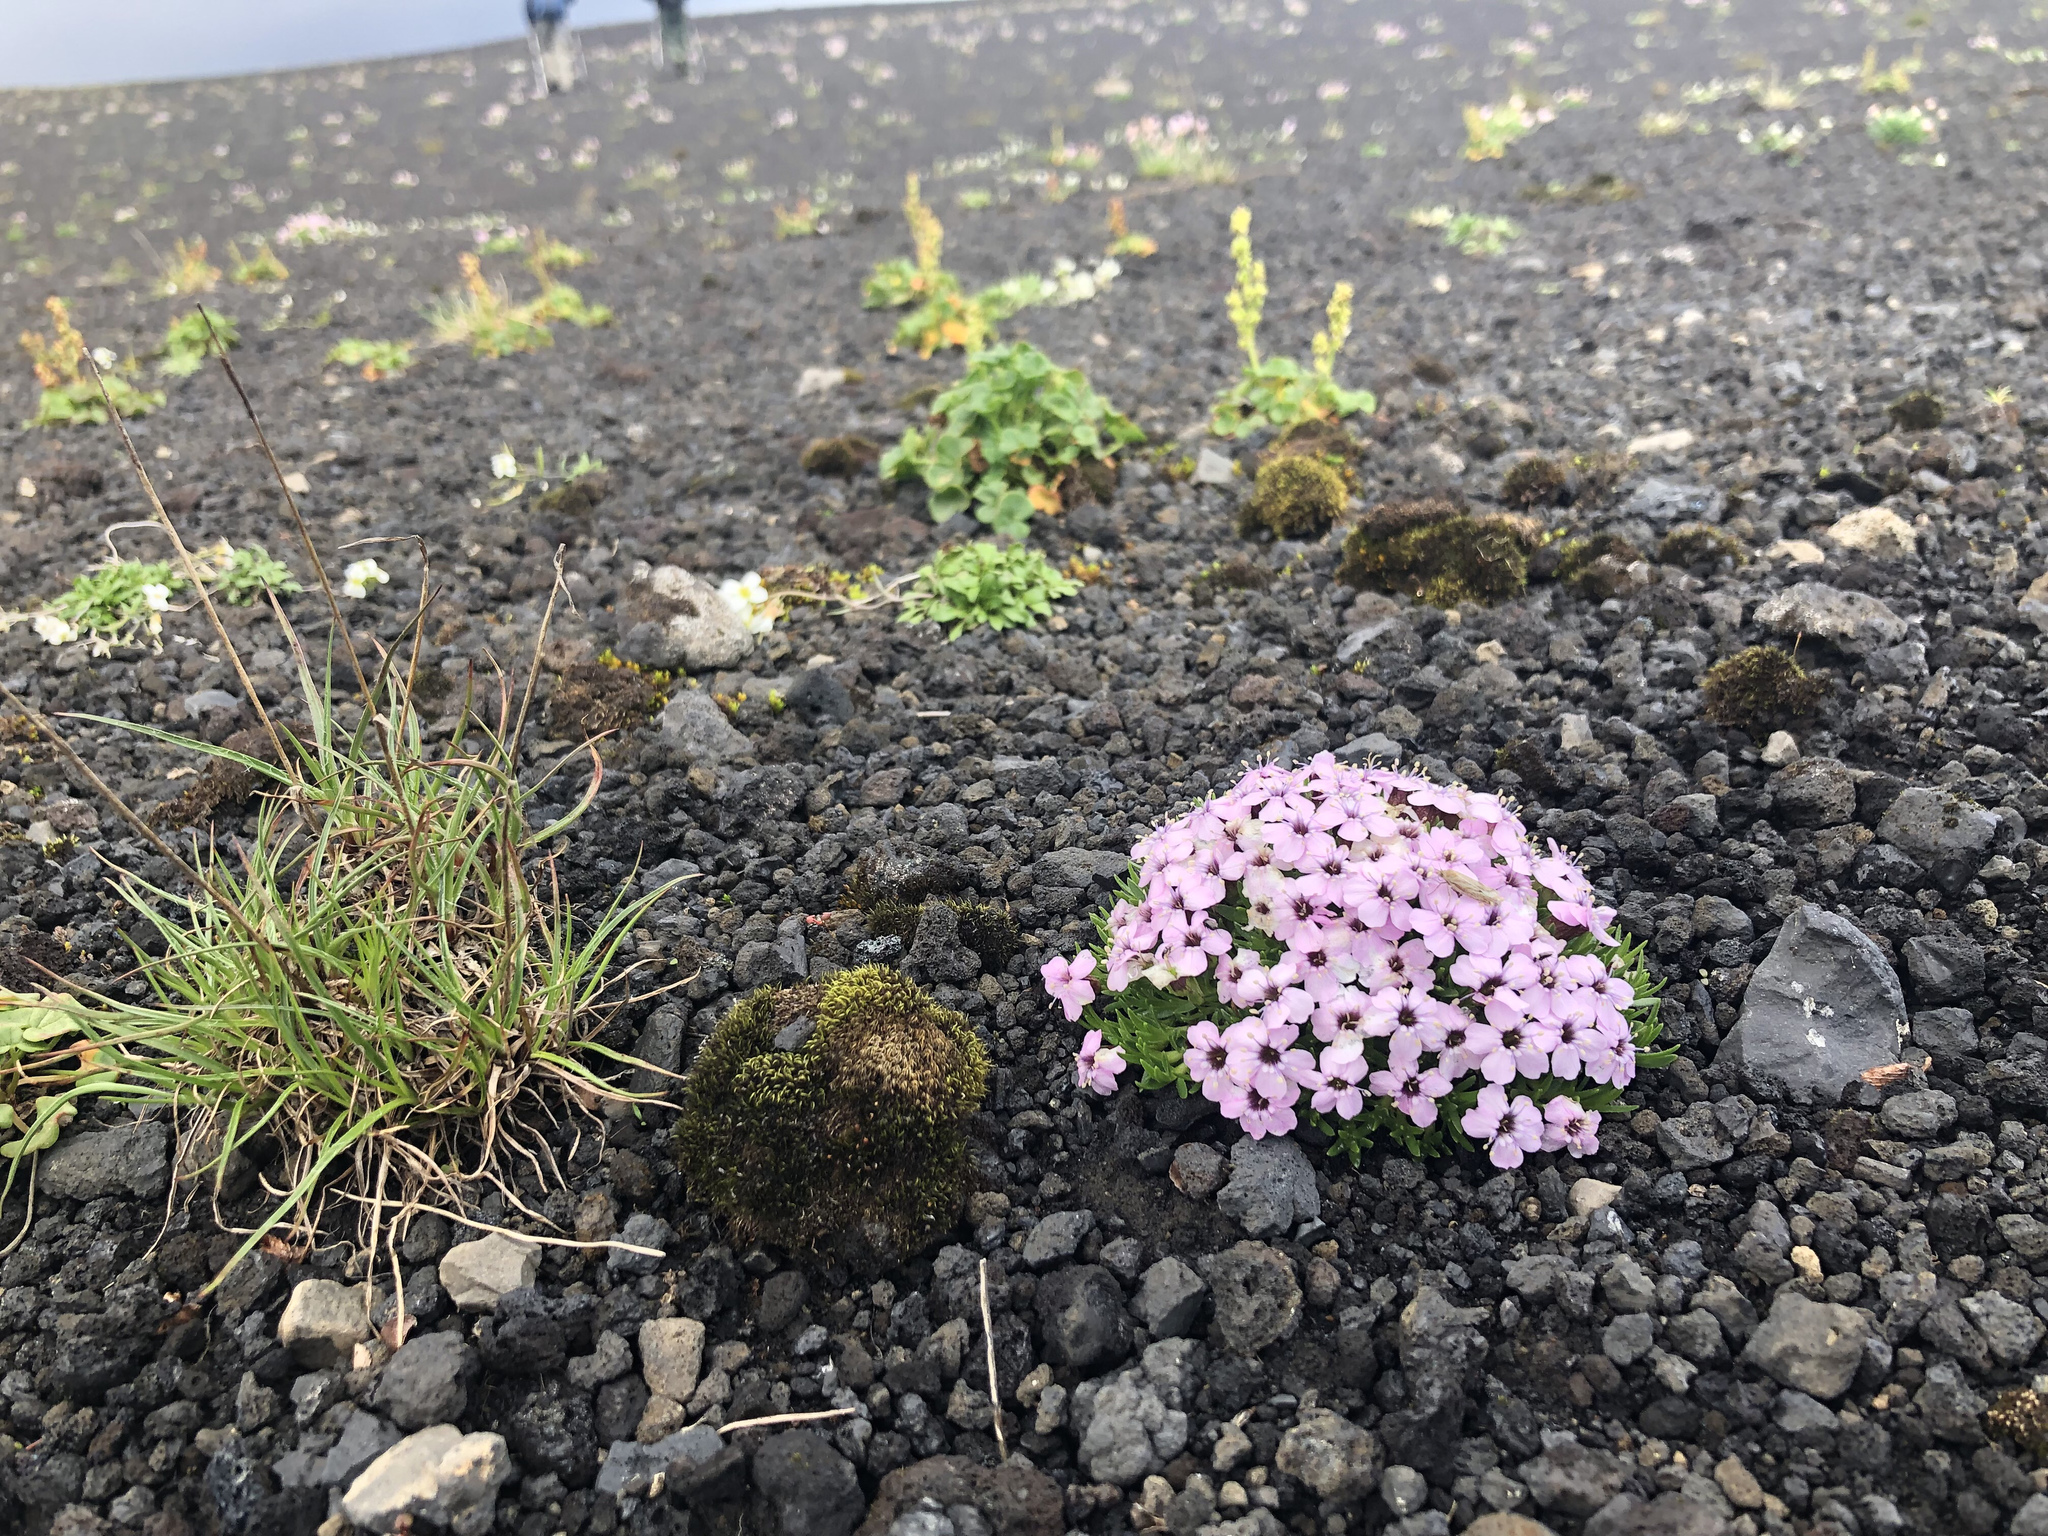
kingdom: Plantae
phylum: Tracheophyta
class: Magnoliopsida
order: Caryophyllales
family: Caryophyllaceae
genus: Silene
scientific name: Silene acaulis
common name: Moss campion
